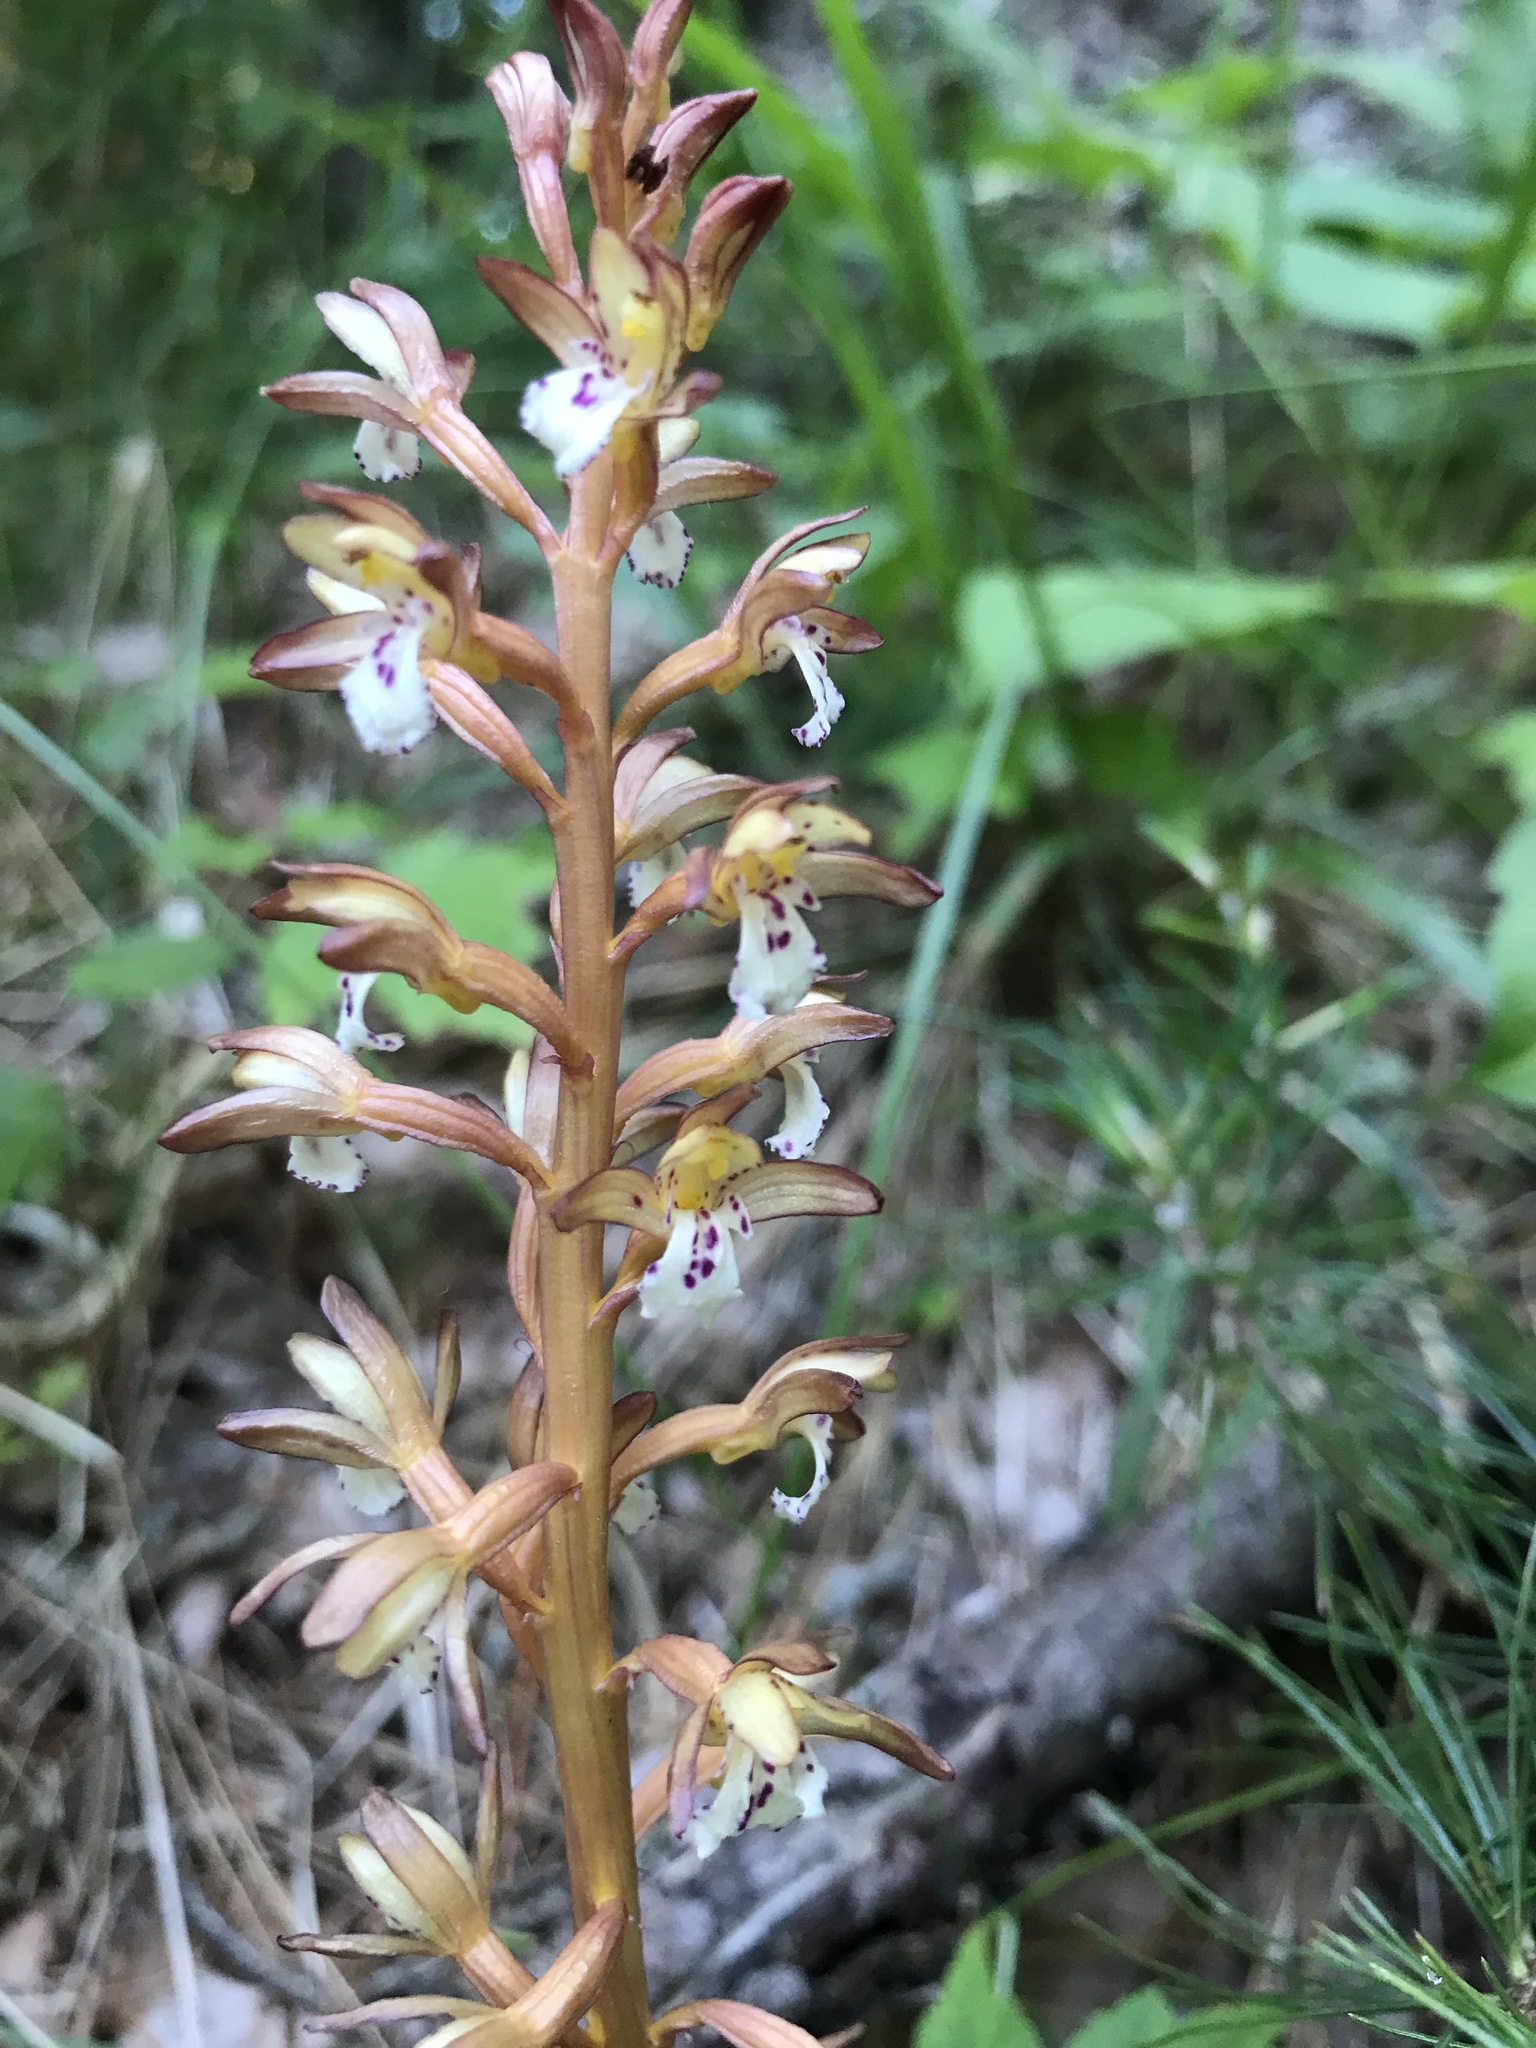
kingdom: Plantae
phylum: Tracheophyta
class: Liliopsida
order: Asparagales
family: Orchidaceae
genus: Corallorhiza
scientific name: Corallorhiza maculata
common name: Spotted coralroot
